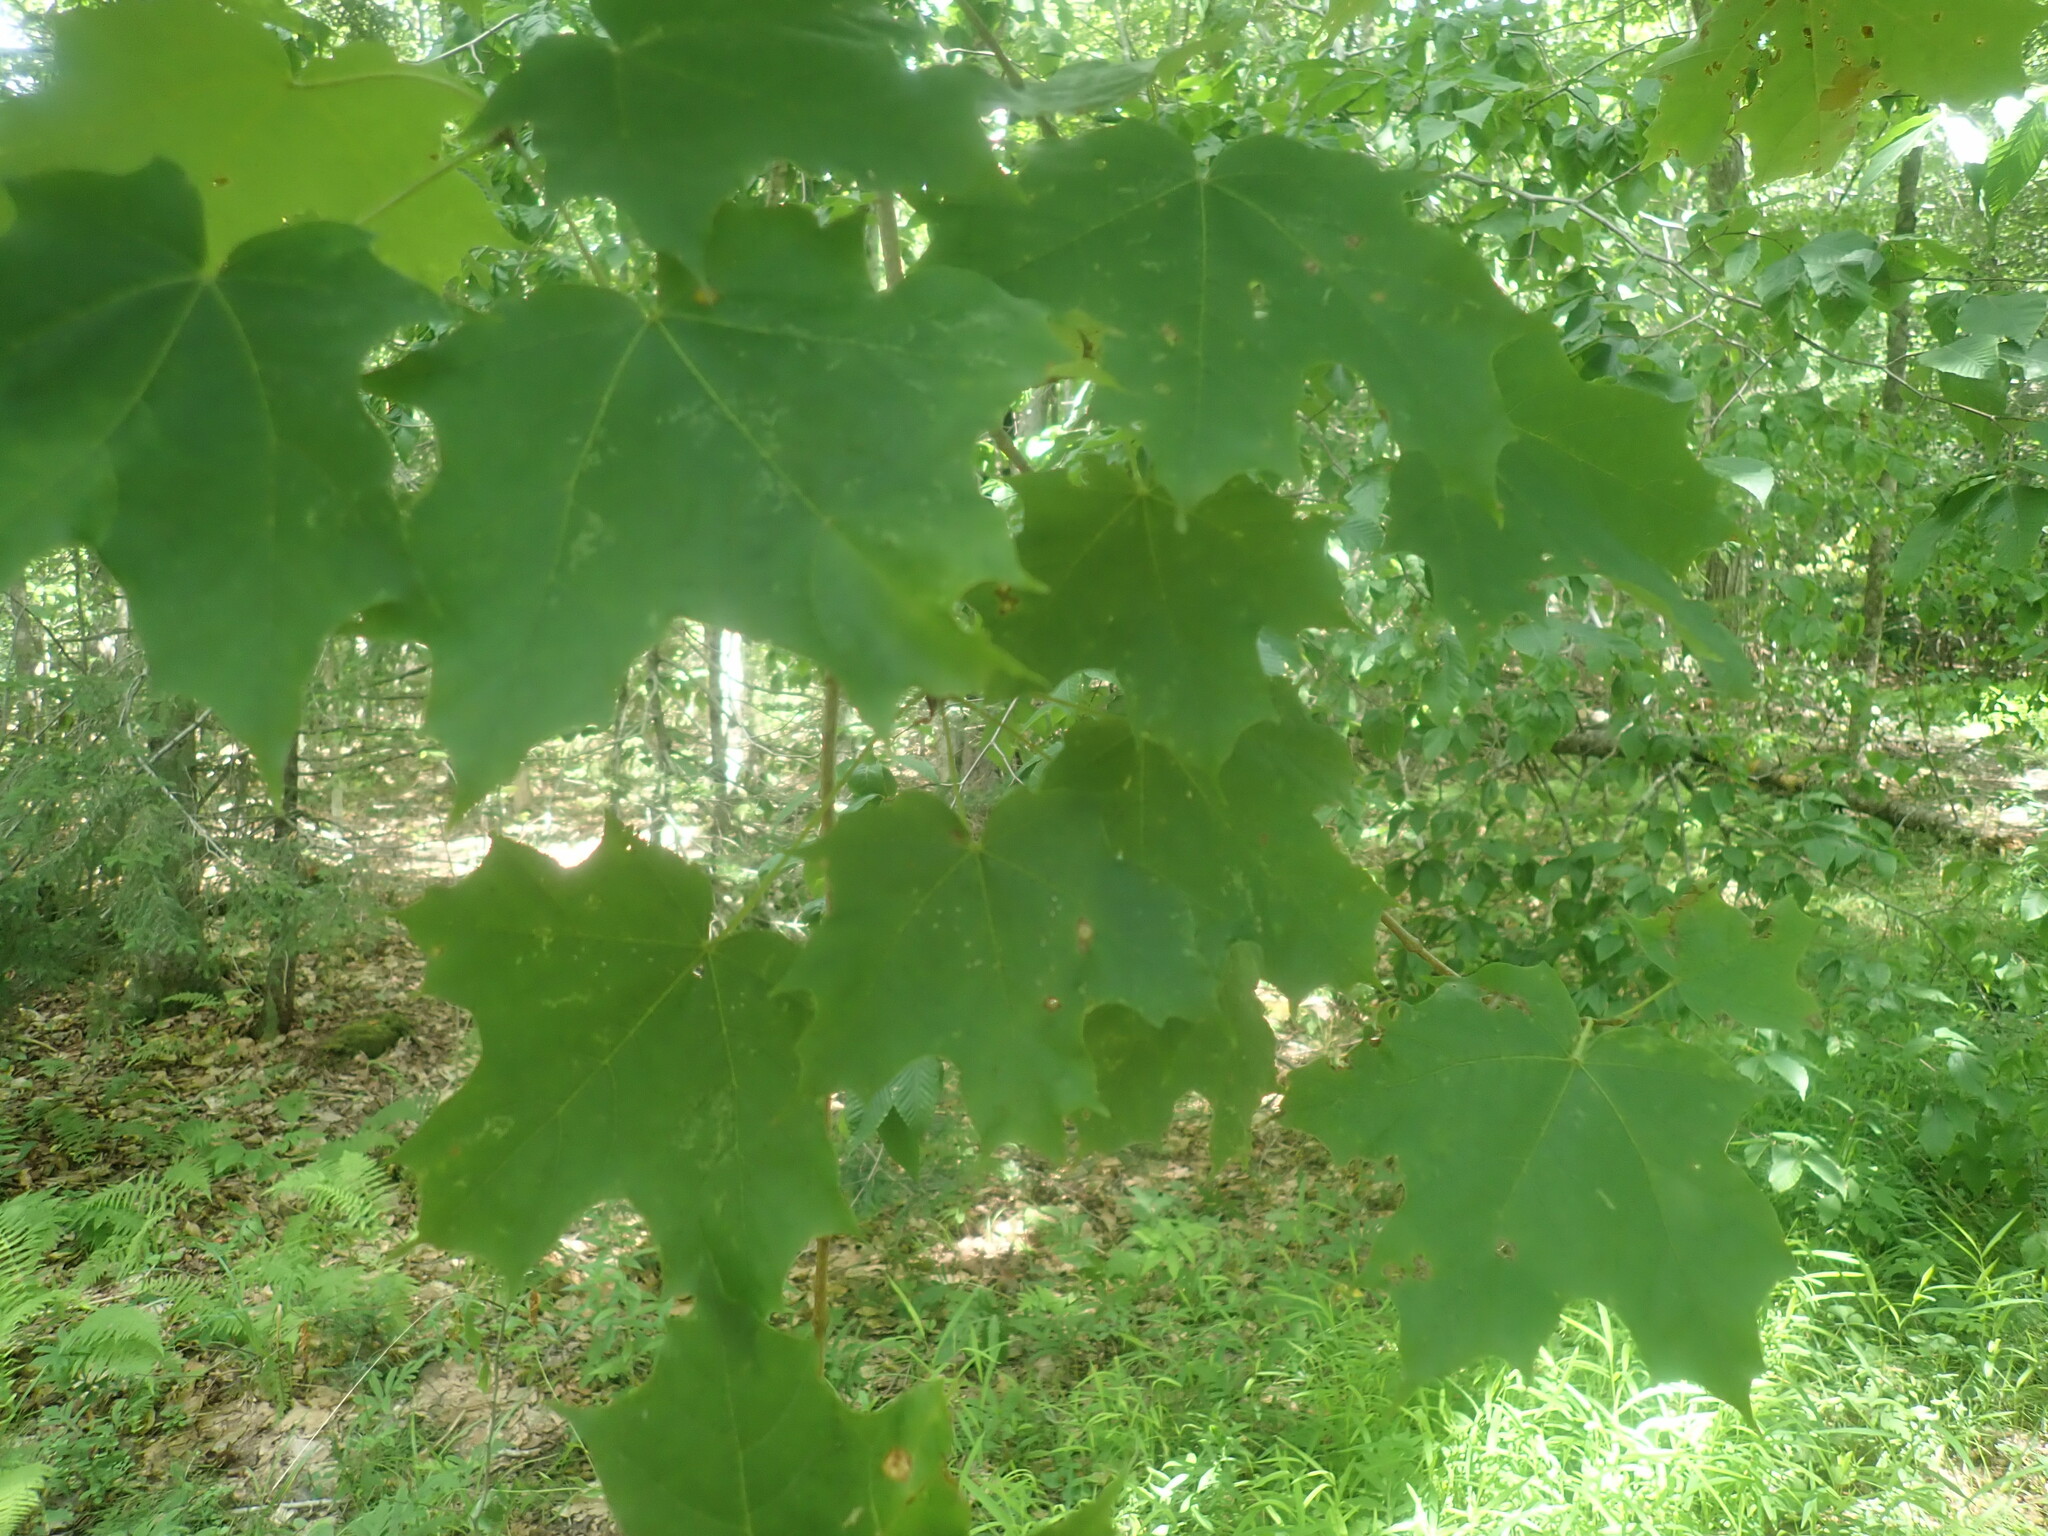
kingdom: Plantae
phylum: Tracheophyta
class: Magnoliopsida
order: Sapindales
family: Sapindaceae
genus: Acer
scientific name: Acer saccharum
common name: Sugar maple
